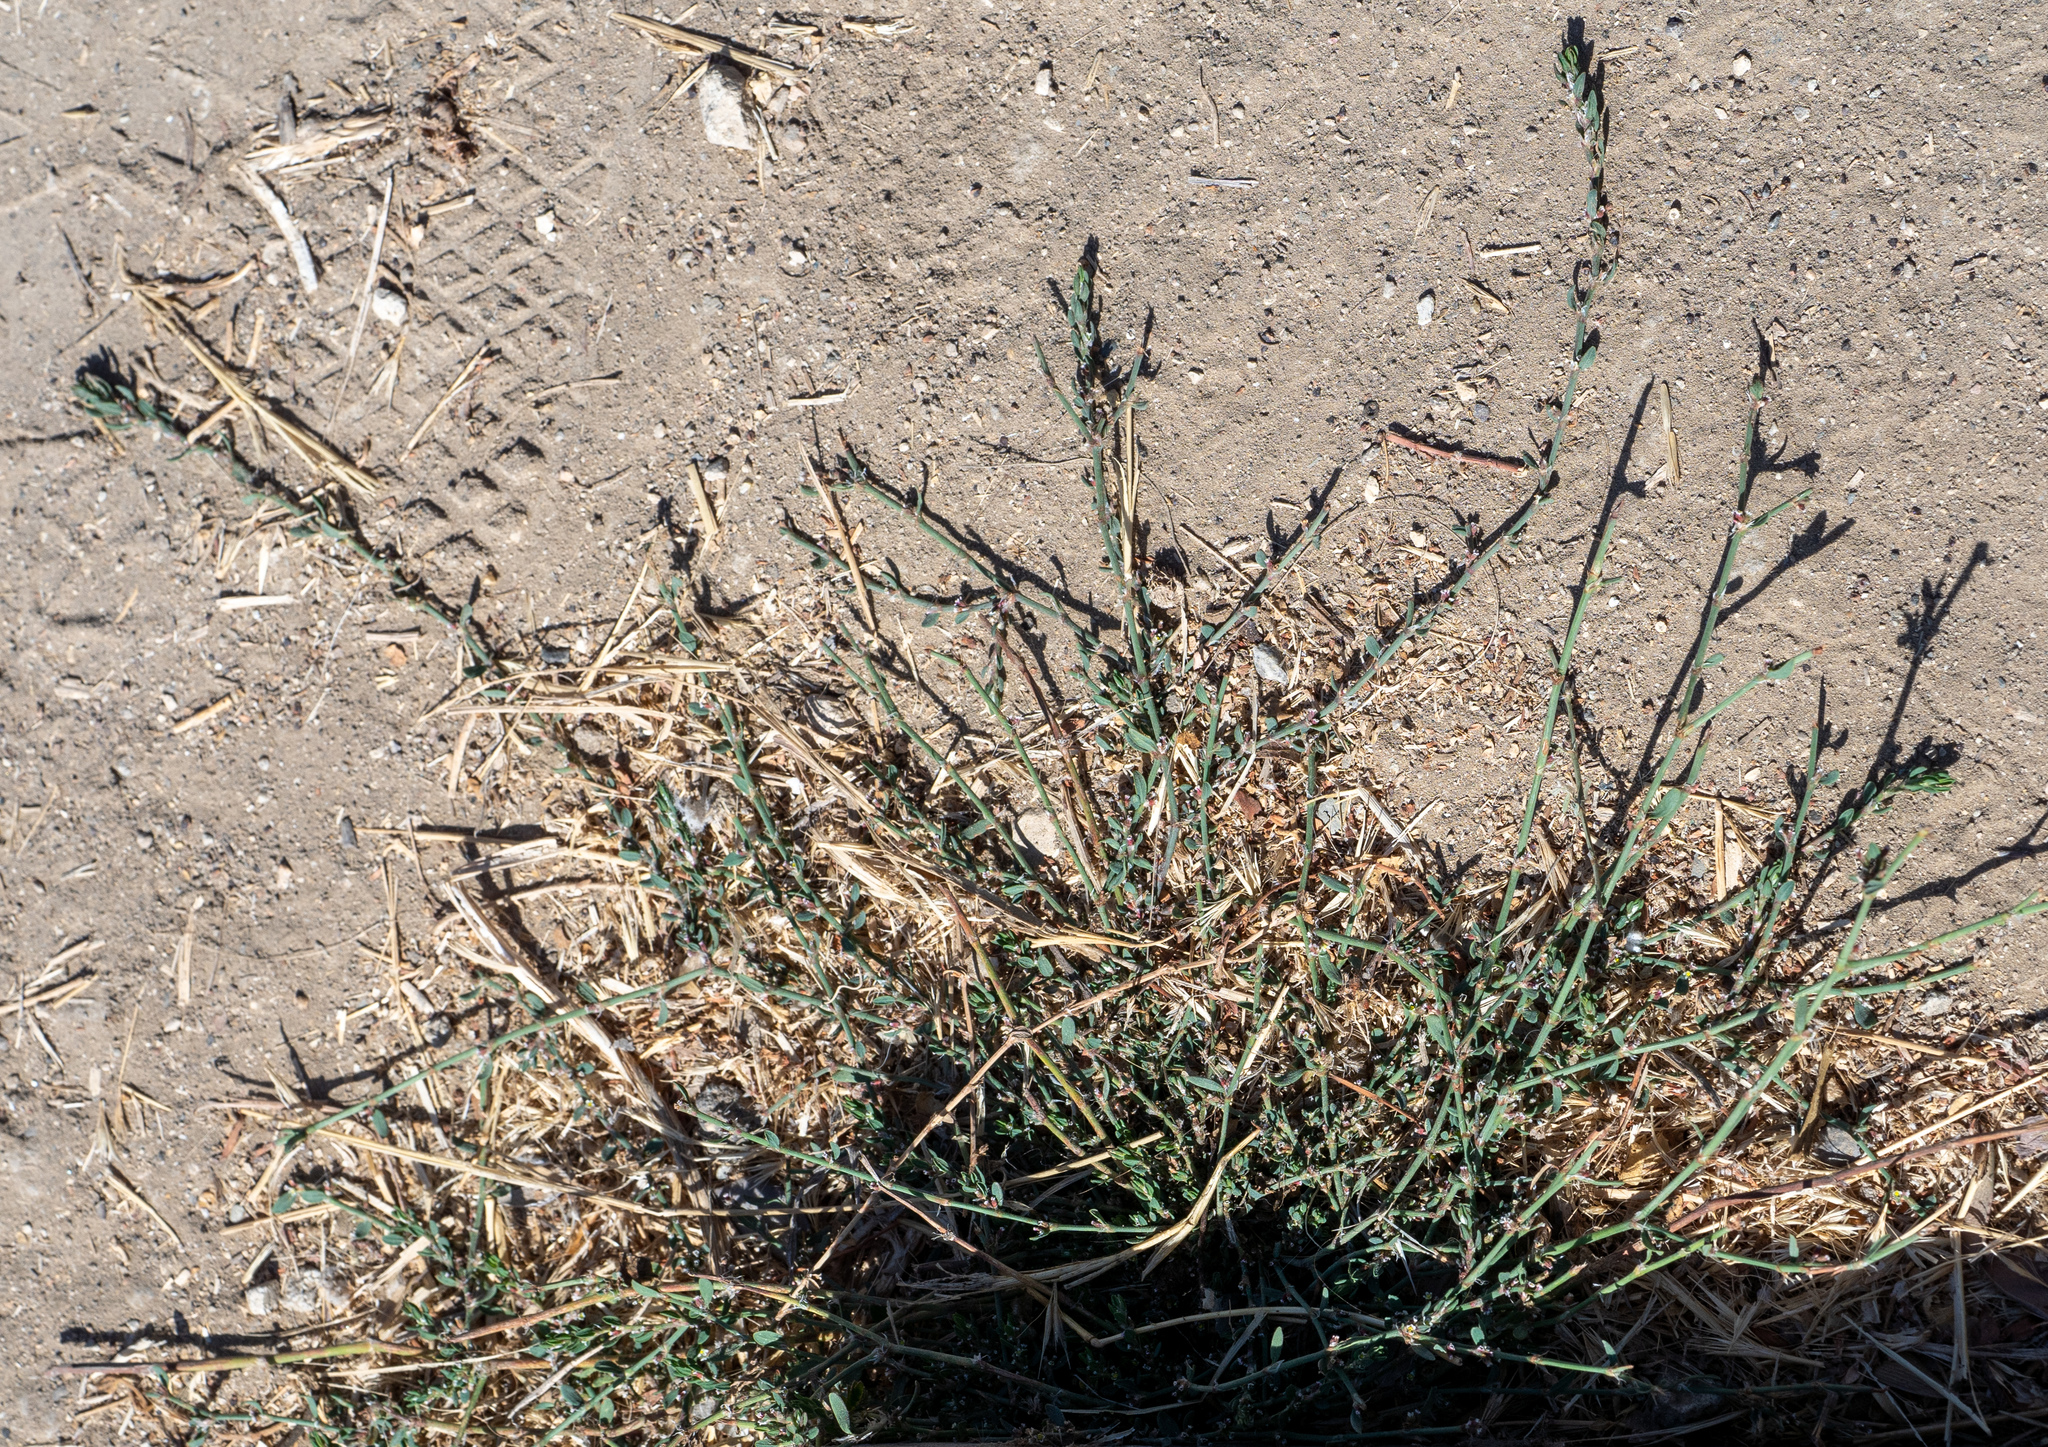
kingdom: Plantae
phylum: Tracheophyta
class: Magnoliopsida
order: Caryophyllales
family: Polygonaceae
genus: Polygonum
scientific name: Polygonum aviculare
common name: Prostrate knotweed
